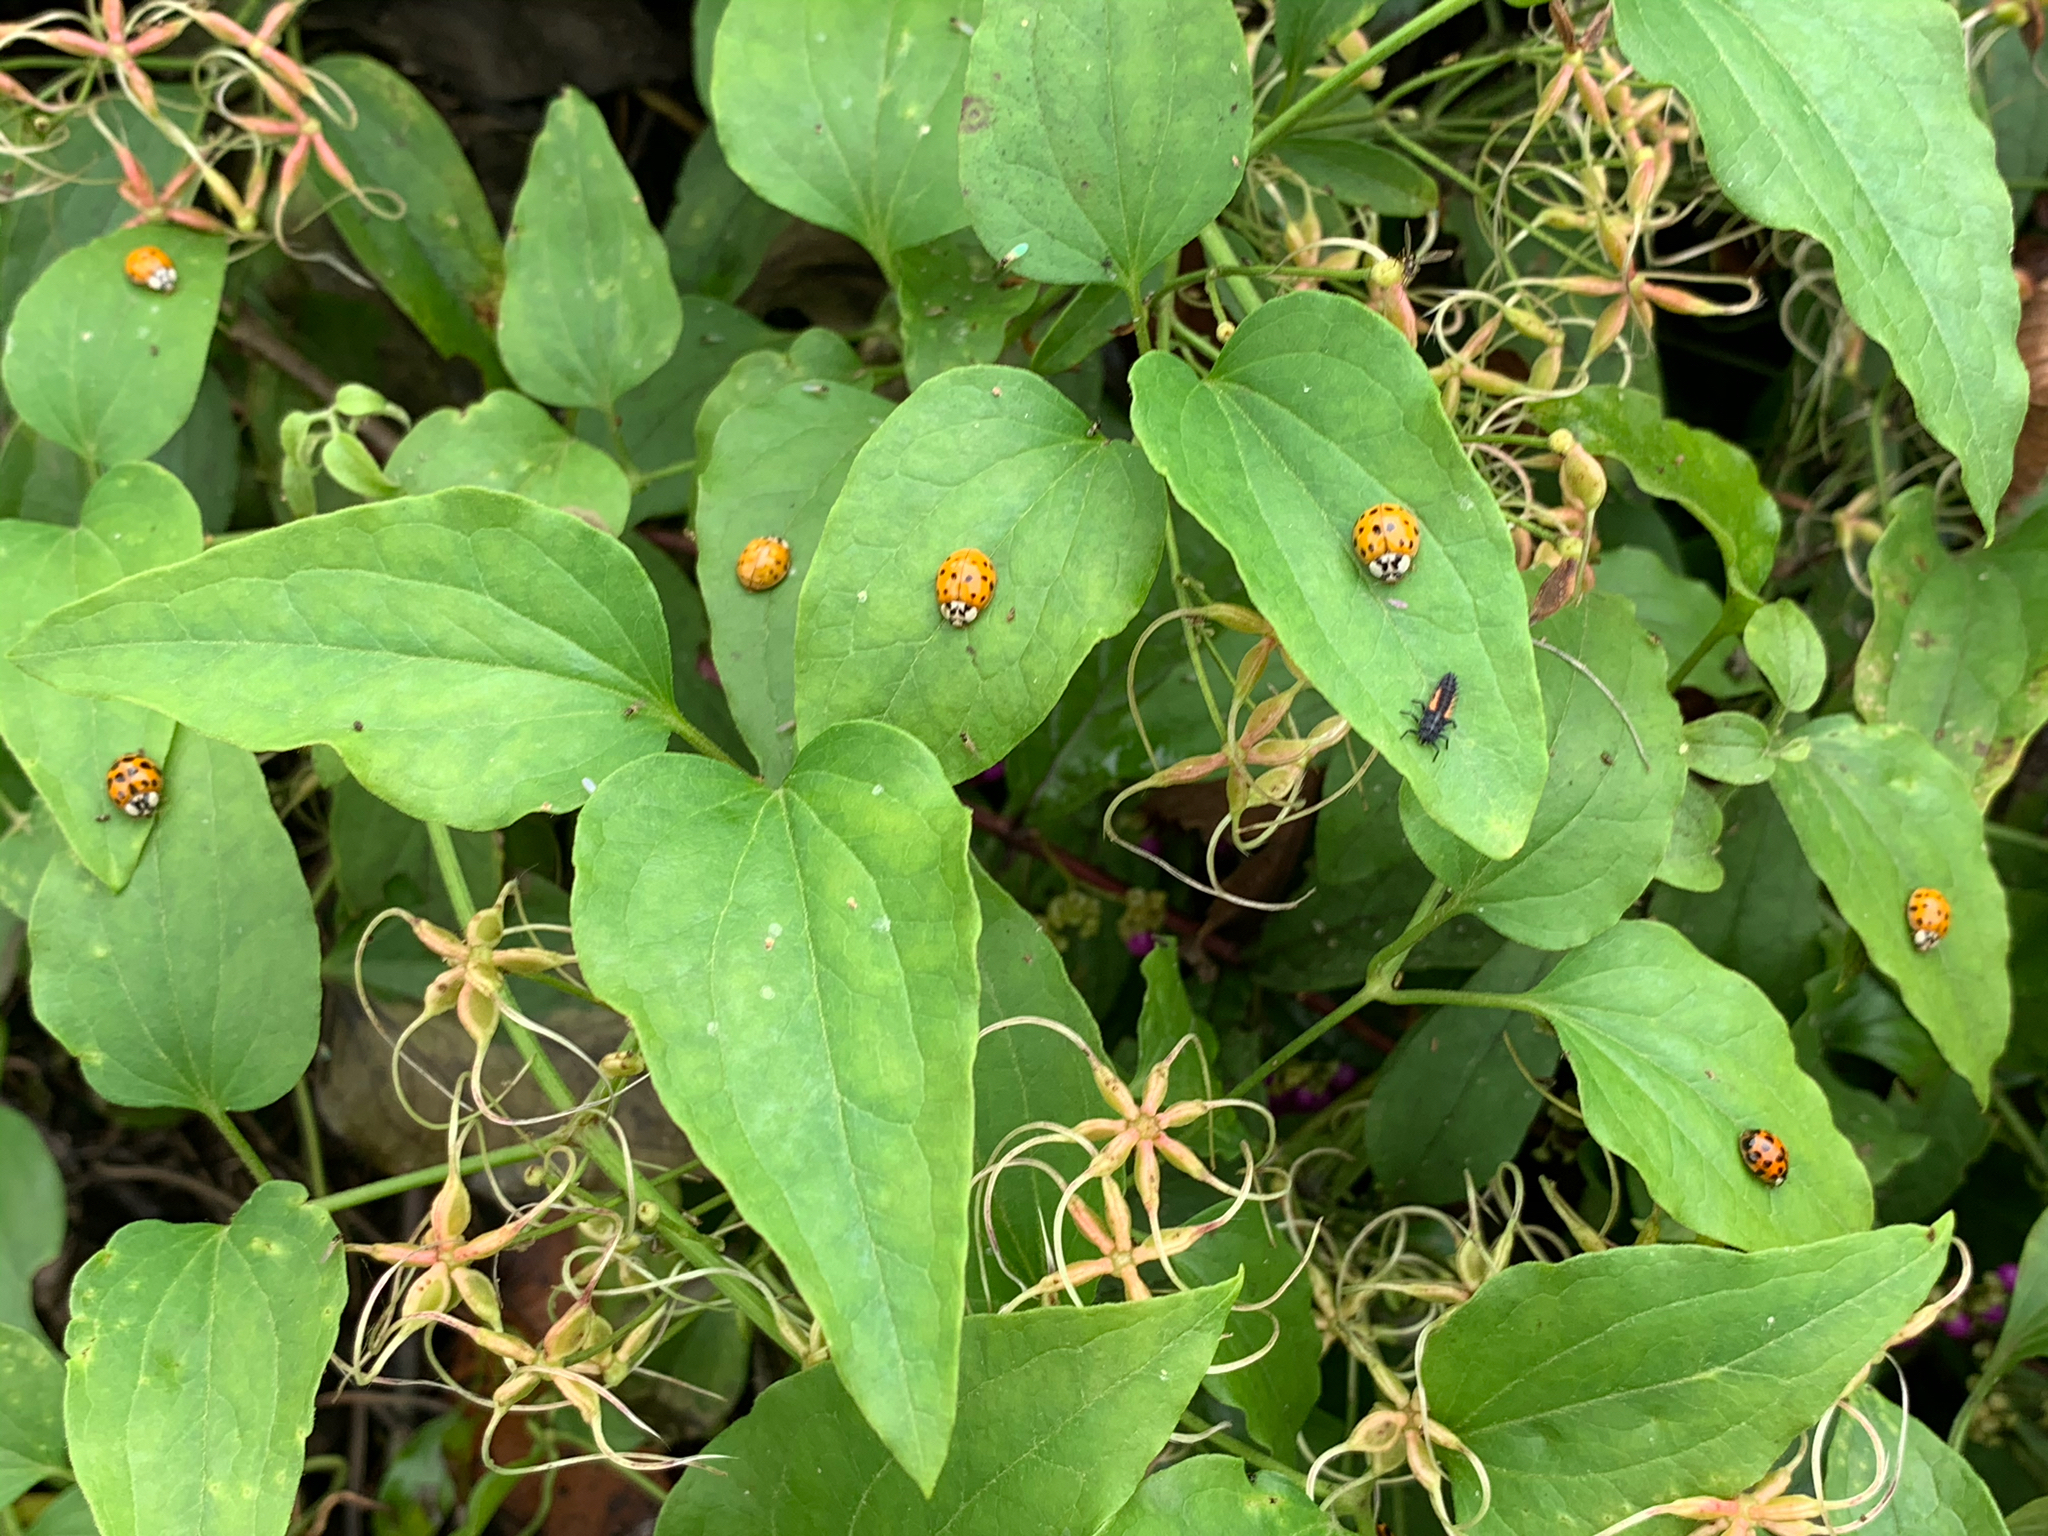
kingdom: Animalia
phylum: Arthropoda
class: Insecta
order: Coleoptera
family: Coccinellidae
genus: Harmonia
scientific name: Harmonia axyridis
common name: Harlequin ladybird
